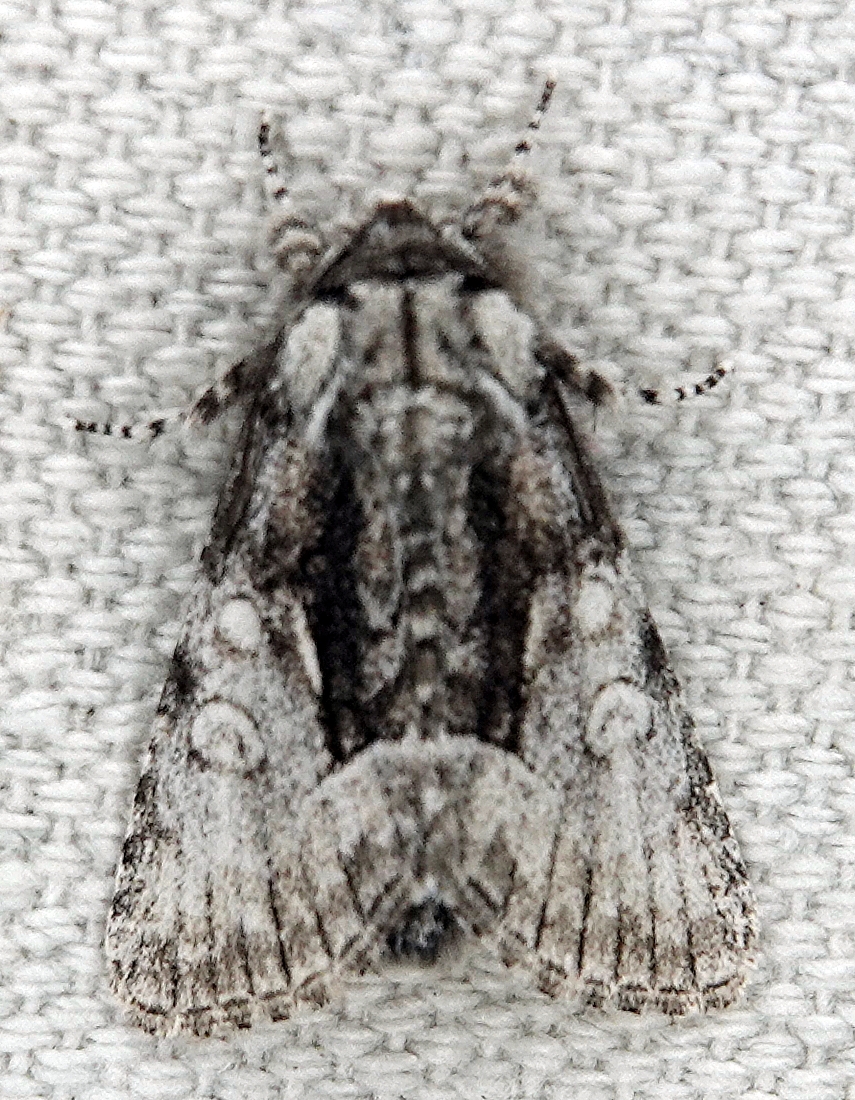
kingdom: Animalia
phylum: Arthropoda
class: Insecta
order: Lepidoptera
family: Noctuidae
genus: Raphia
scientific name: Raphia frater
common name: Brother
